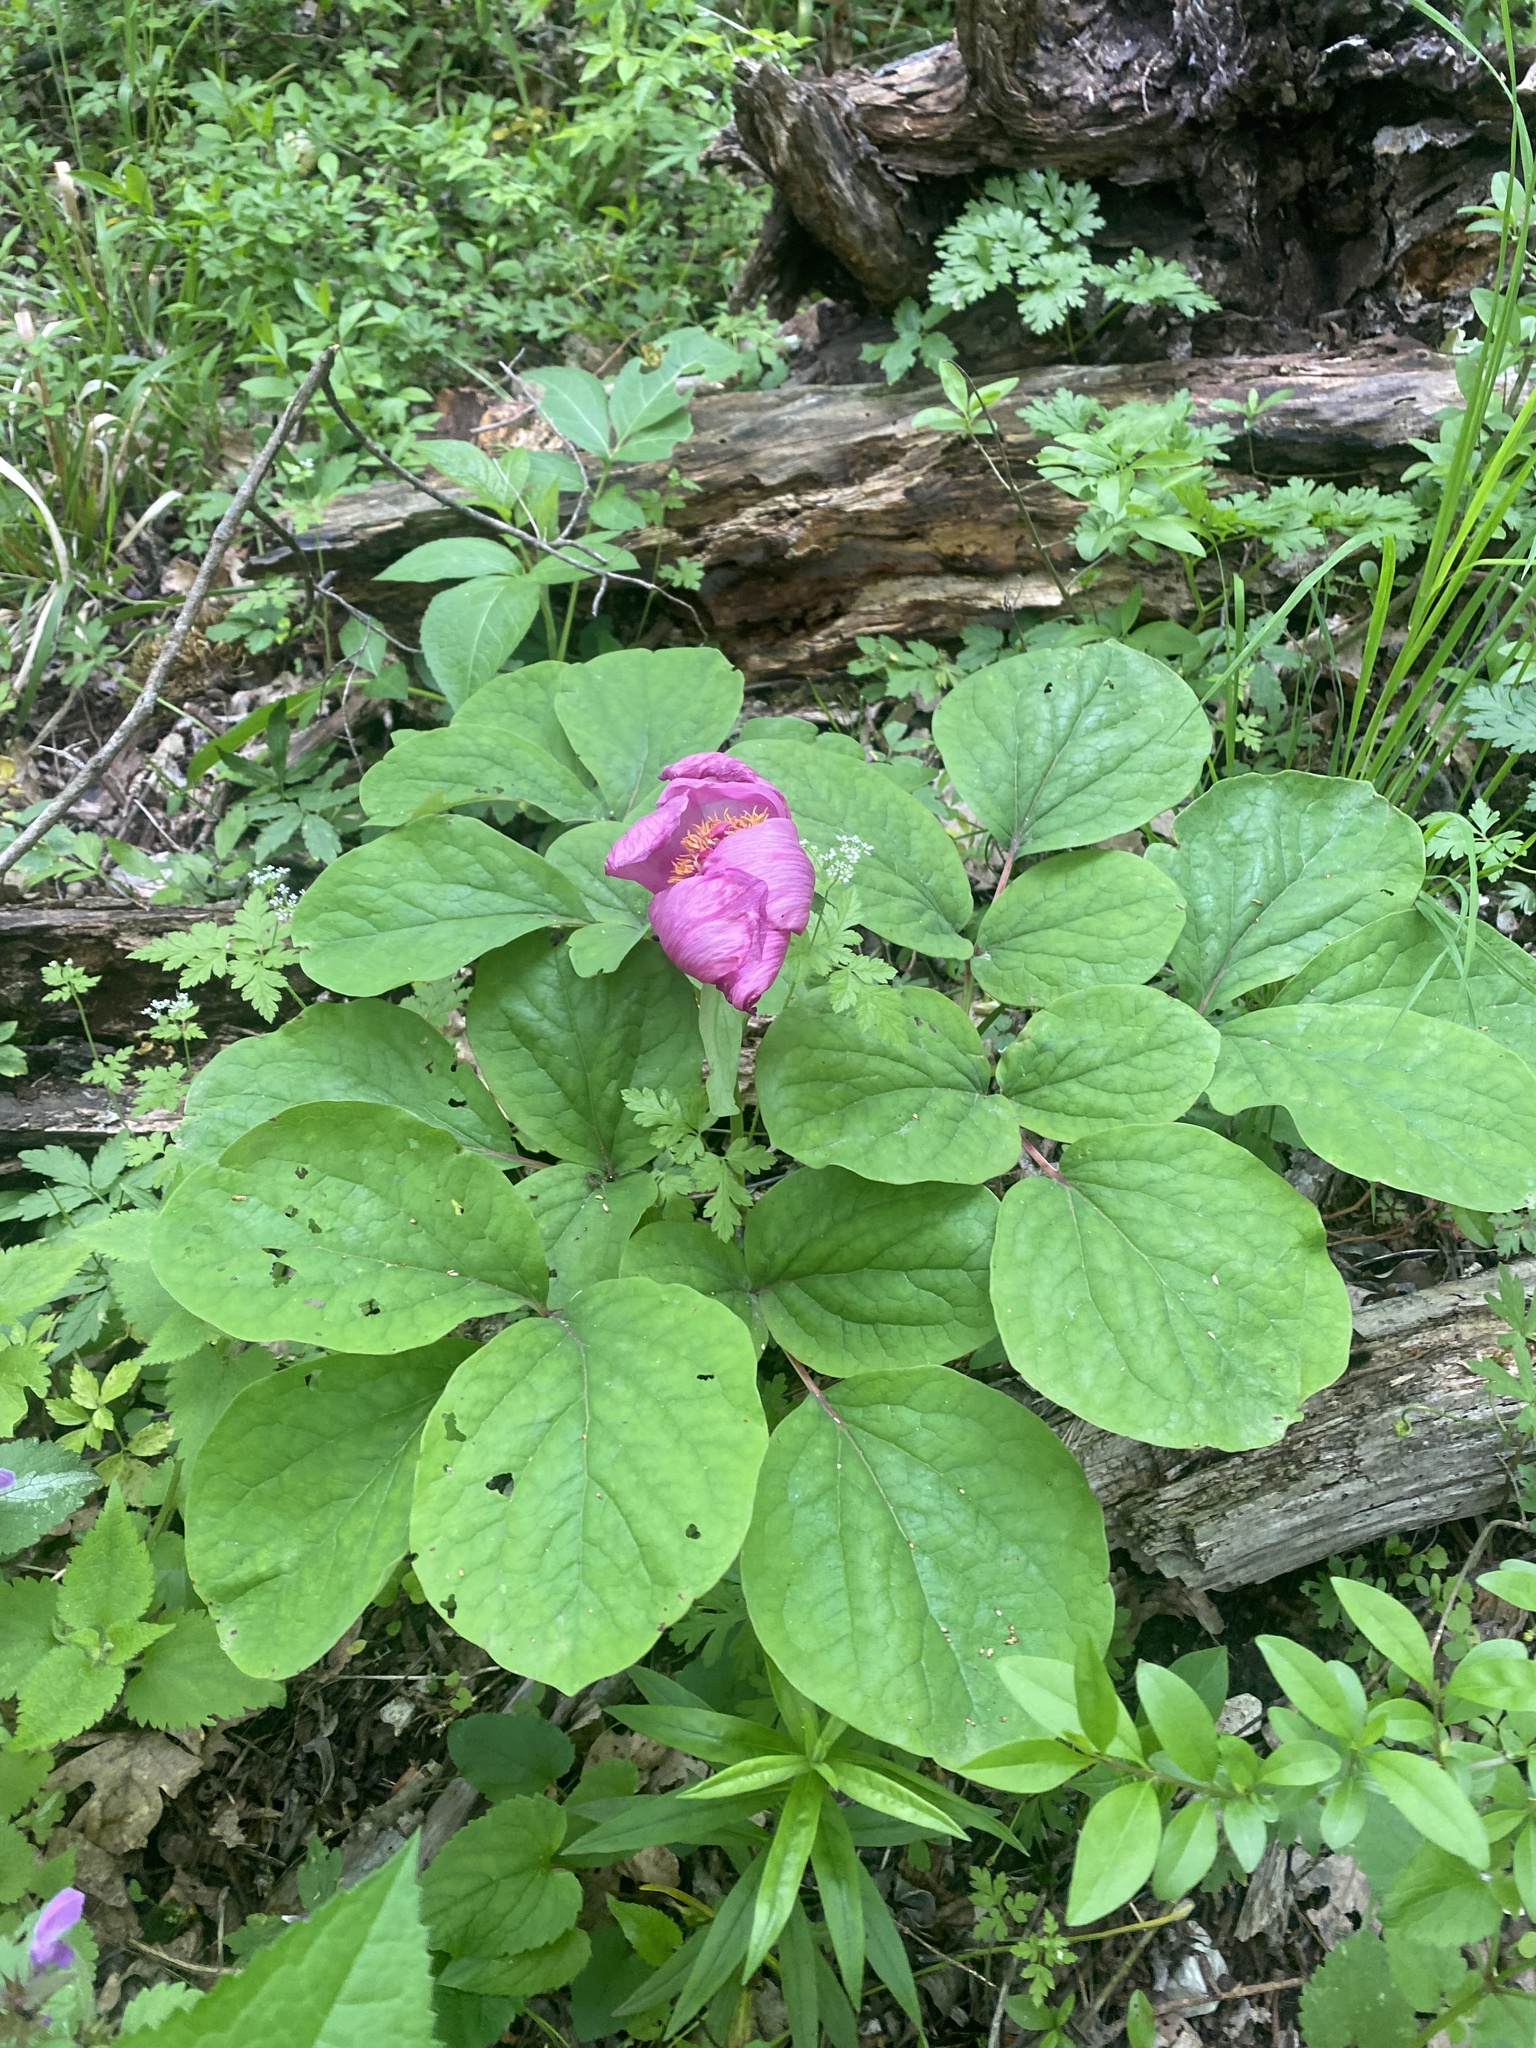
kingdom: Plantae
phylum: Tracheophyta
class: Magnoliopsida
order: Saxifragales
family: Paeoniaceae
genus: Paeonia
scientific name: Paeonia caucasica
